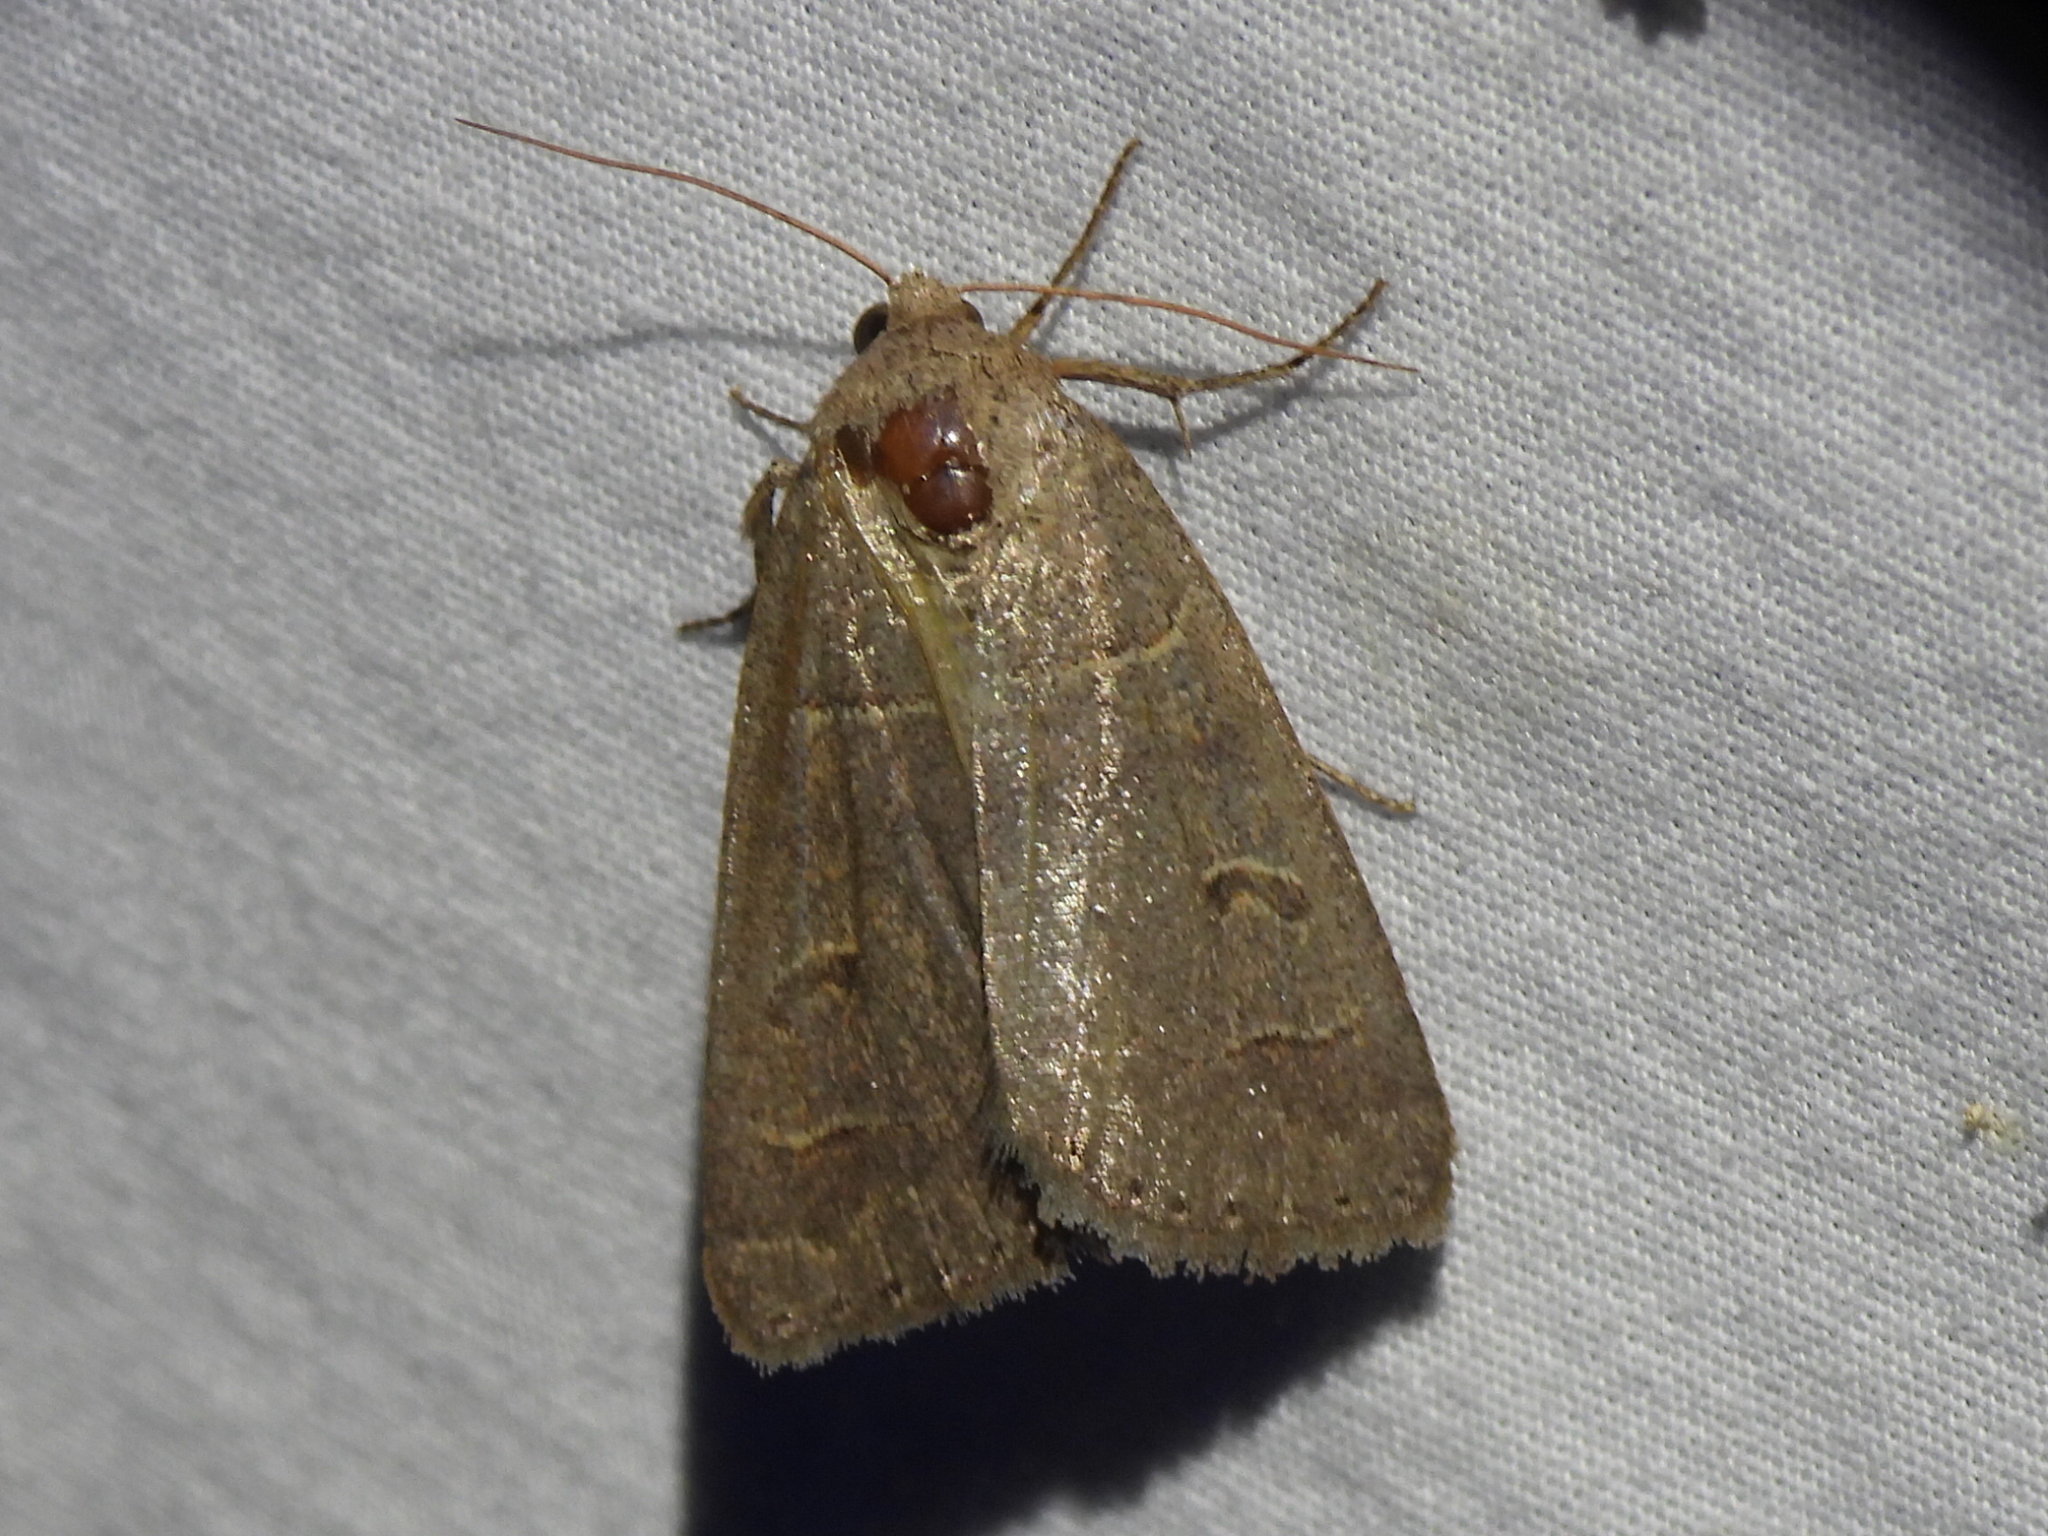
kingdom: Animalia
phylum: Arthropoda
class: Insecta
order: Lepidoptera
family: Erebidae
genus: Phoberia
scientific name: Phoberia atomaris
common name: Common oak moth
